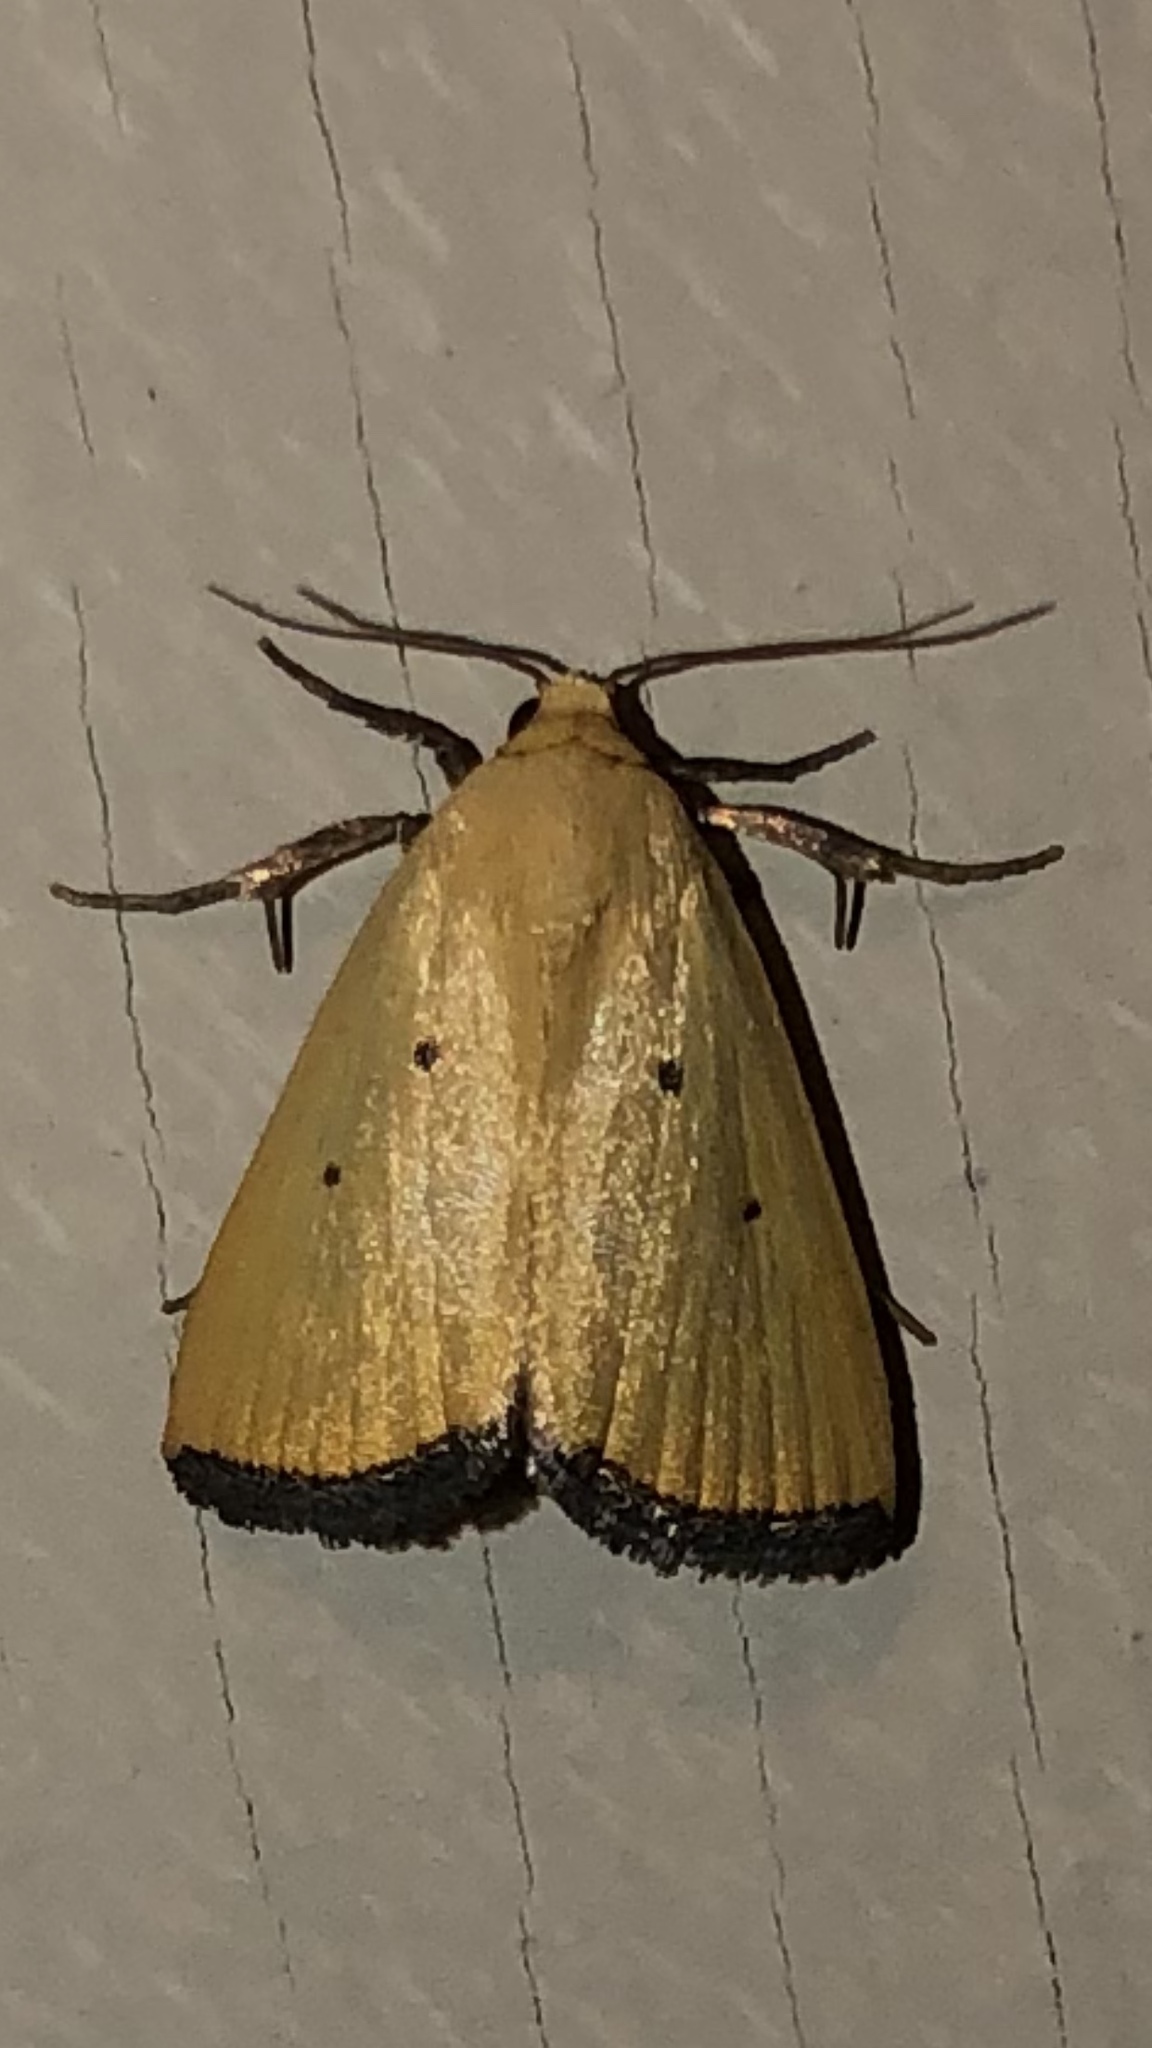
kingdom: Animalia
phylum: Arthropoda
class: Insecta
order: Lepidoptera
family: Noctuidae
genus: Marimatha
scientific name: Marimatha nigrofimbria
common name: Black-bordered lemon moth
